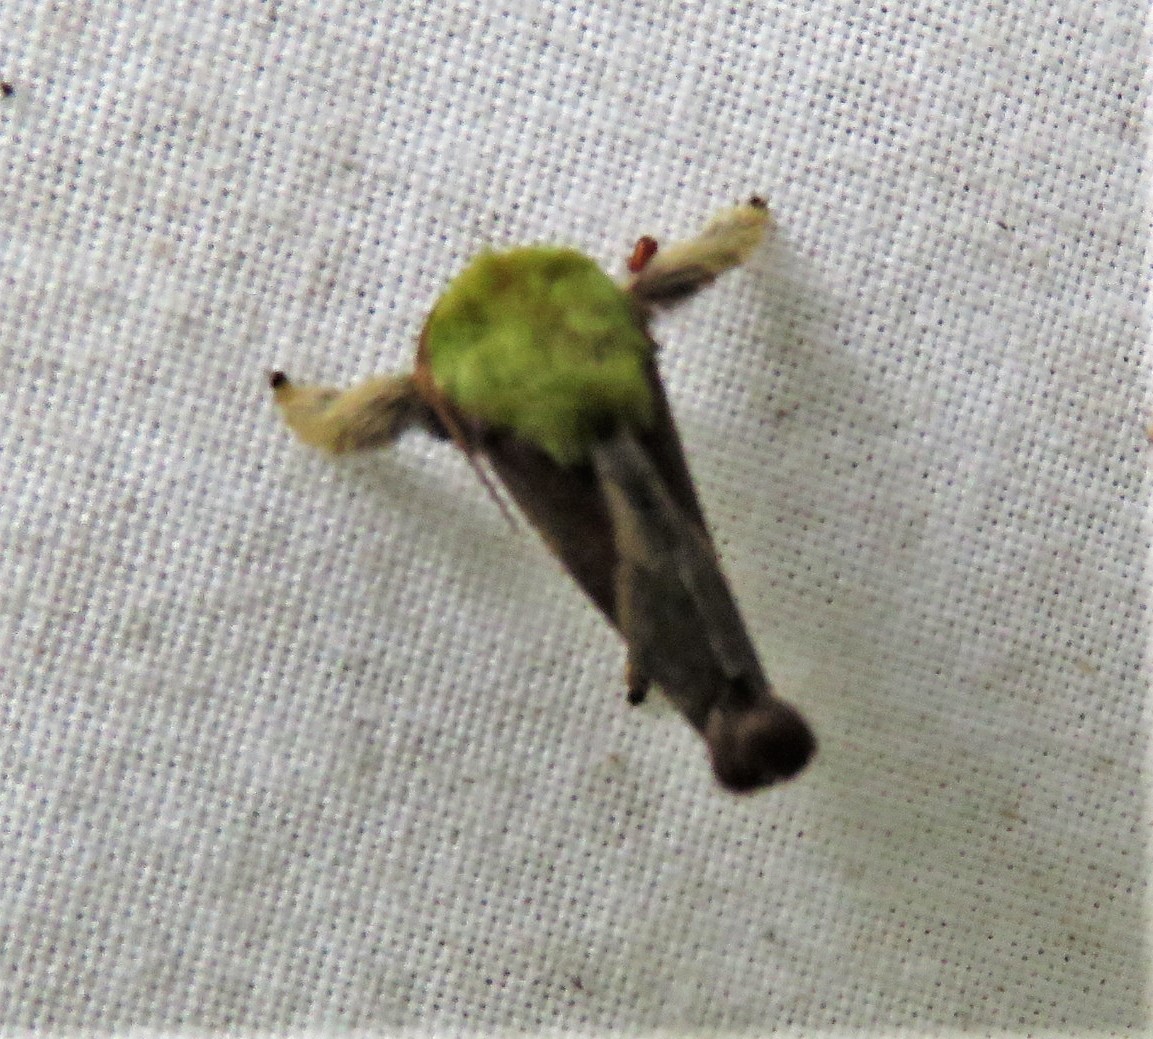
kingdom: Animalia
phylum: Arthropoda
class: Insecta
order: Lepidoptera
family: Limacodidae
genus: Parasa
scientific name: Parasa viridogrisea
